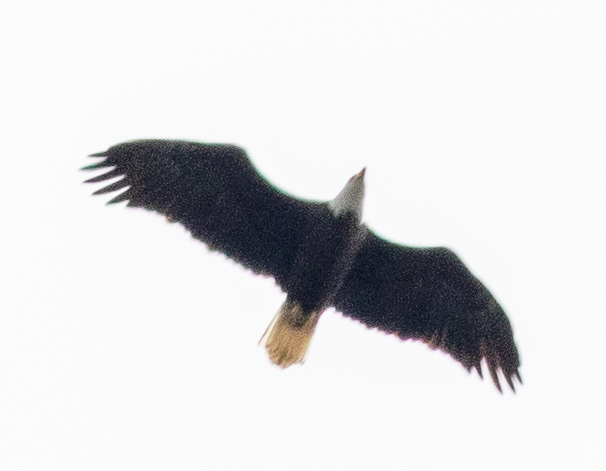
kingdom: Animalia
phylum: Chordata
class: Aves
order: Accipitriformes
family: Accipitridae
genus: Haliaeetus
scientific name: Haliaeetus leucocephalus
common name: Bald eagle
